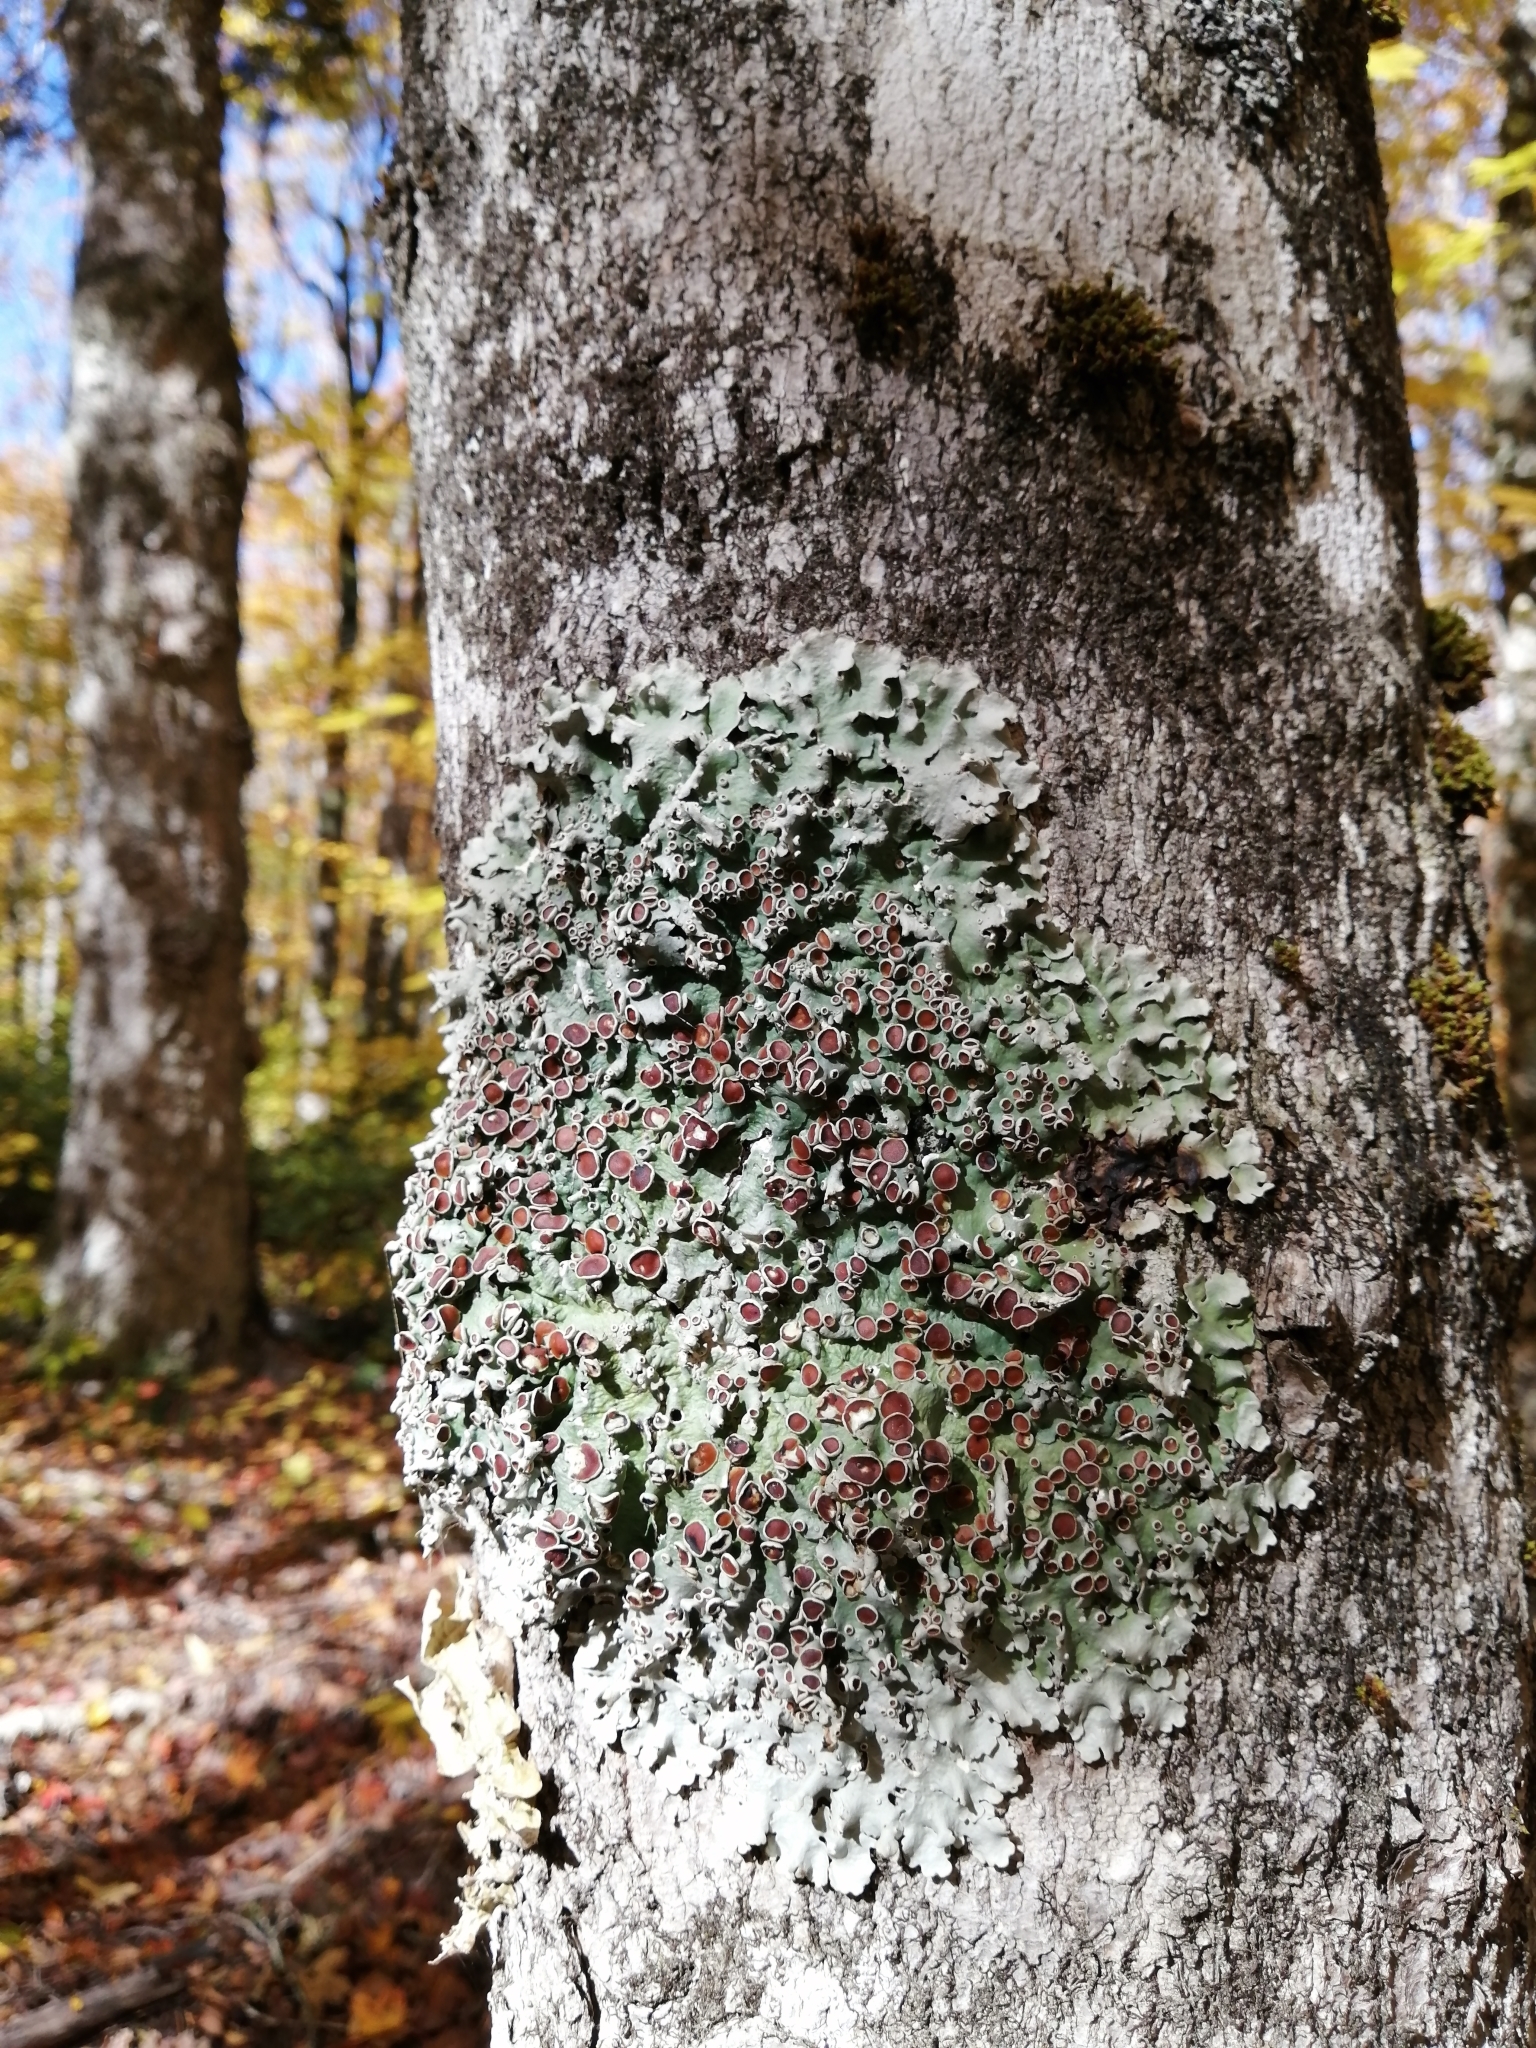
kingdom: Fungi
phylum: Ascomycota
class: Lecanoromycetes
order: Peltigerales
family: Lobariaceae
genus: Ricasolia
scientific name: Ricasolia quercizans
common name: Smooth lungwort
